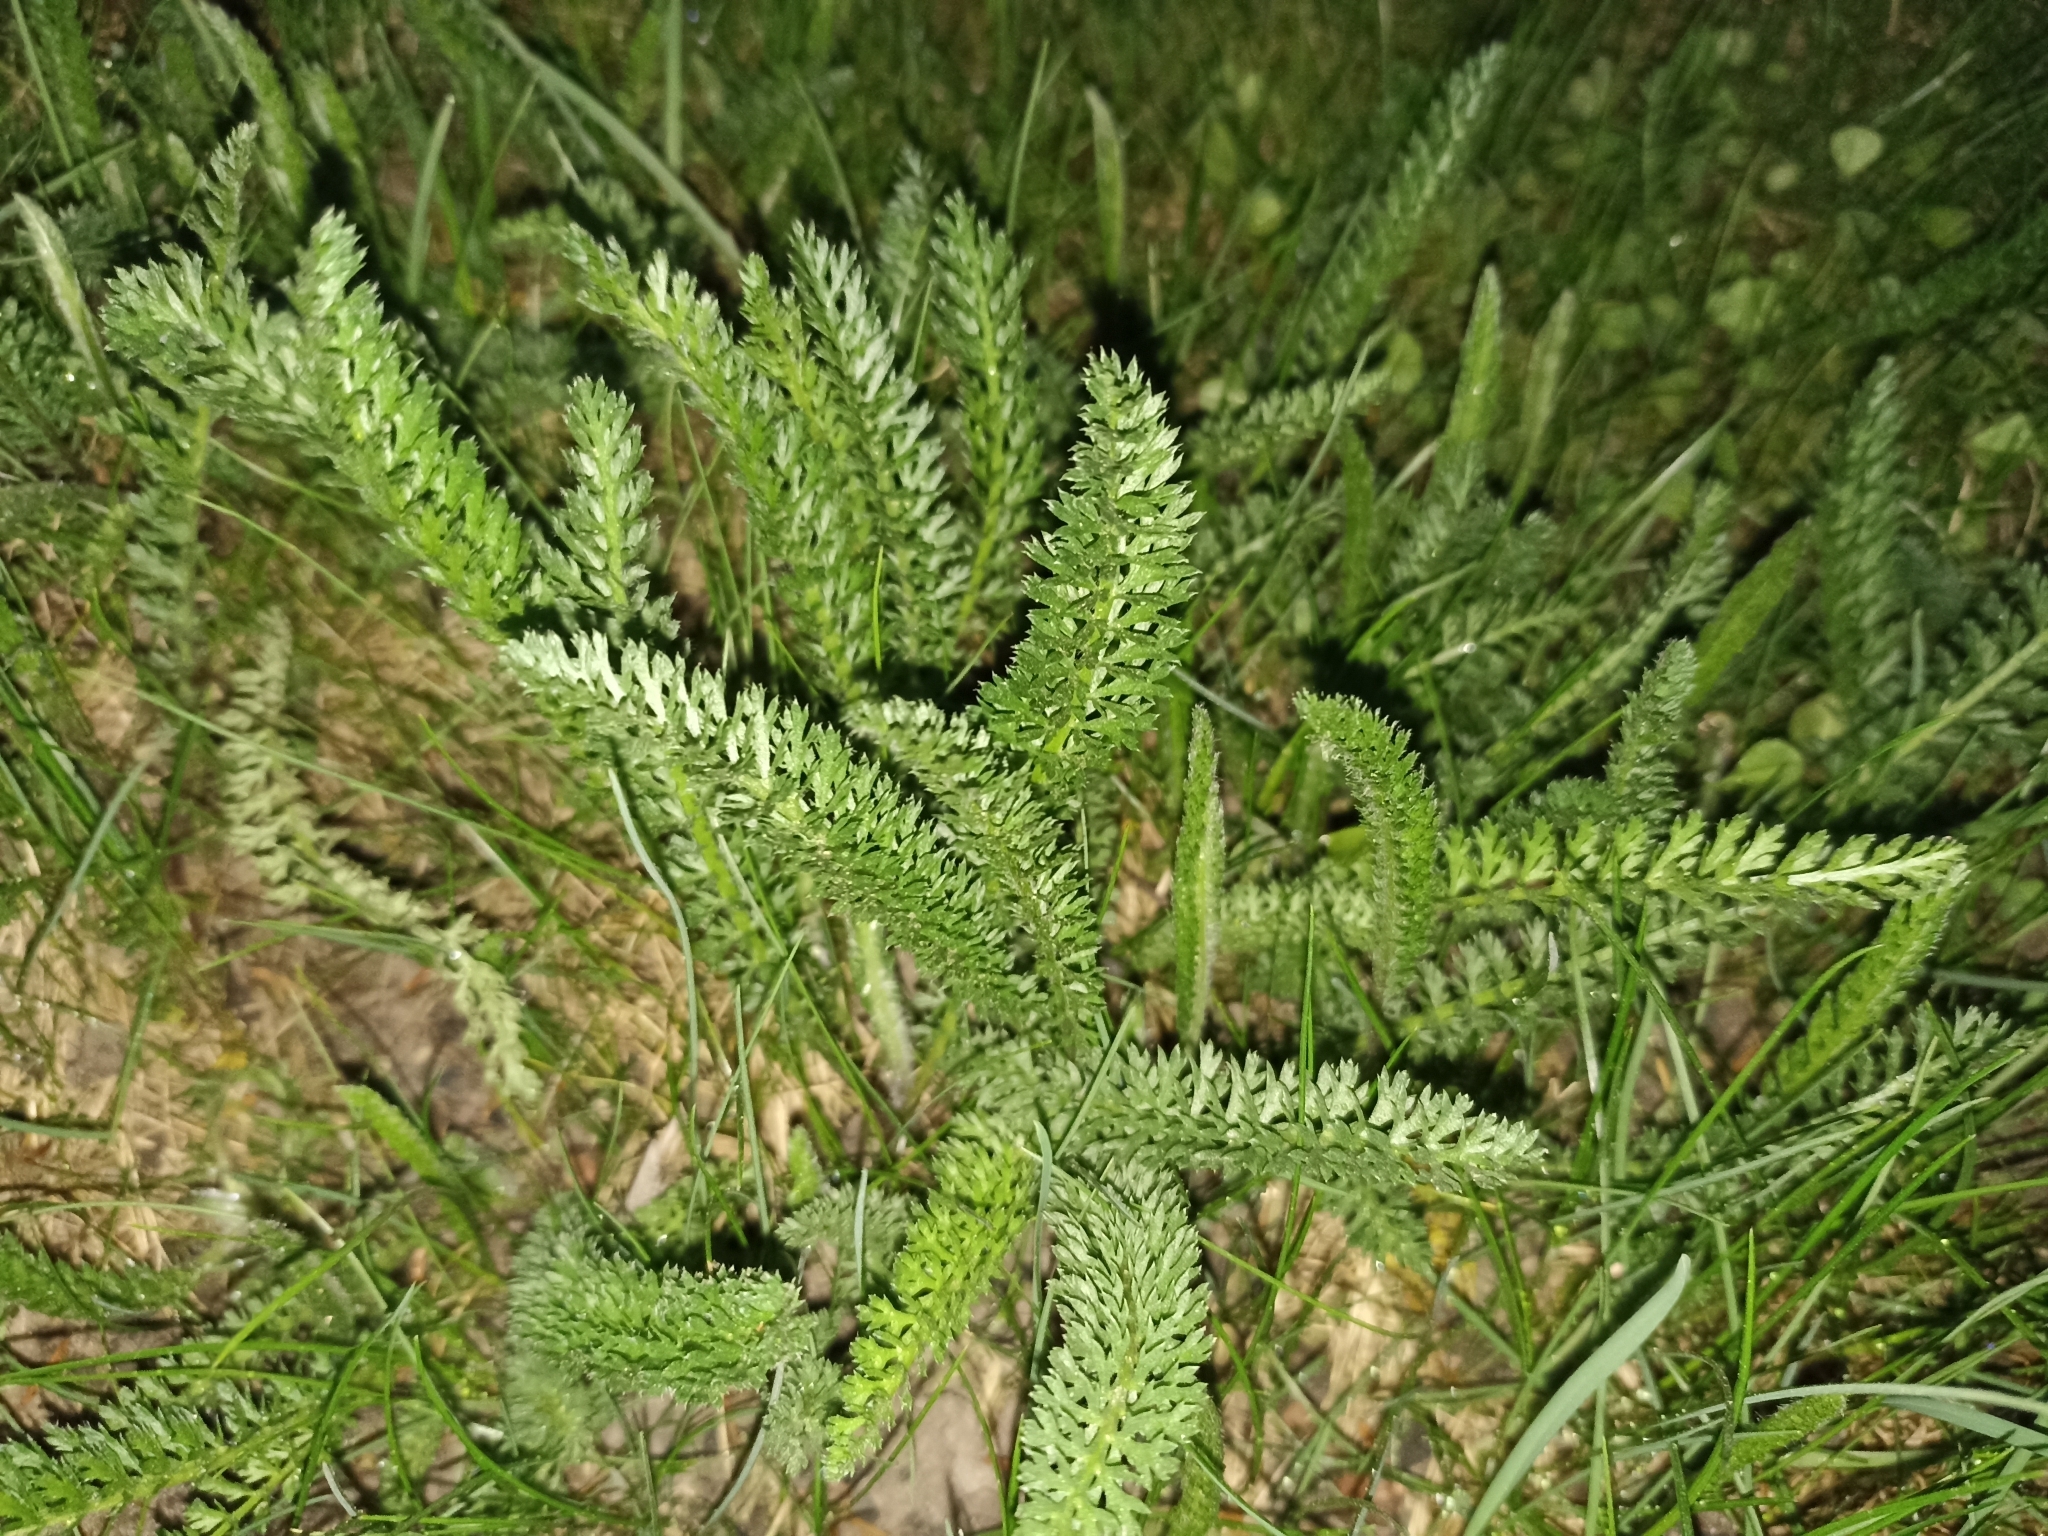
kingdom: Plantae
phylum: Tracheophyta
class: Magnoliopsida
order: Asterales
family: Asteraceae
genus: Achillea
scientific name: Achillea millefolium
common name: Yarrow
